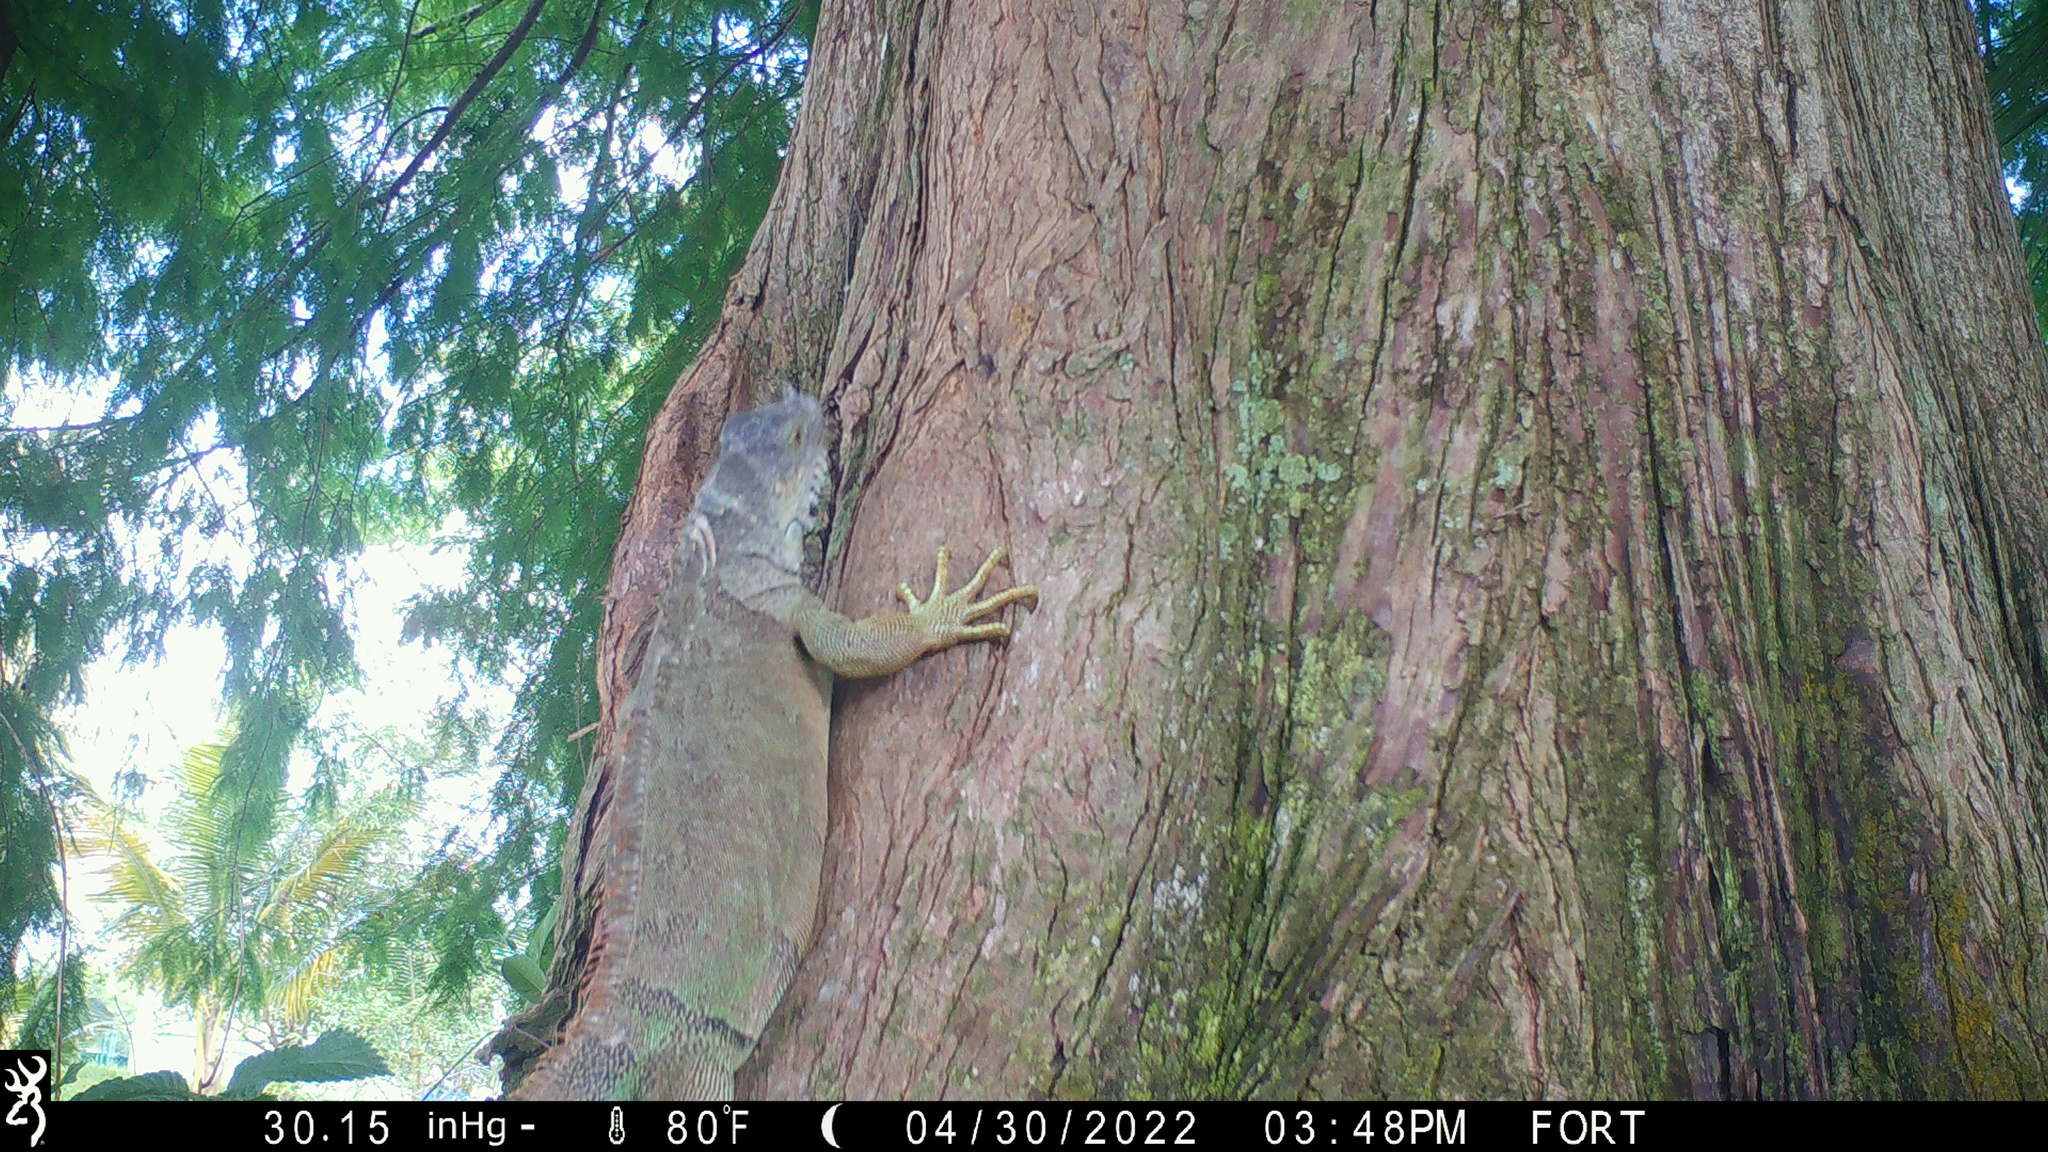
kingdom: Animalia
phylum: Chordata
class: Squamata
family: Iguanidae
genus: Iguana
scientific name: Iguana iguana
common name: Green iguana
